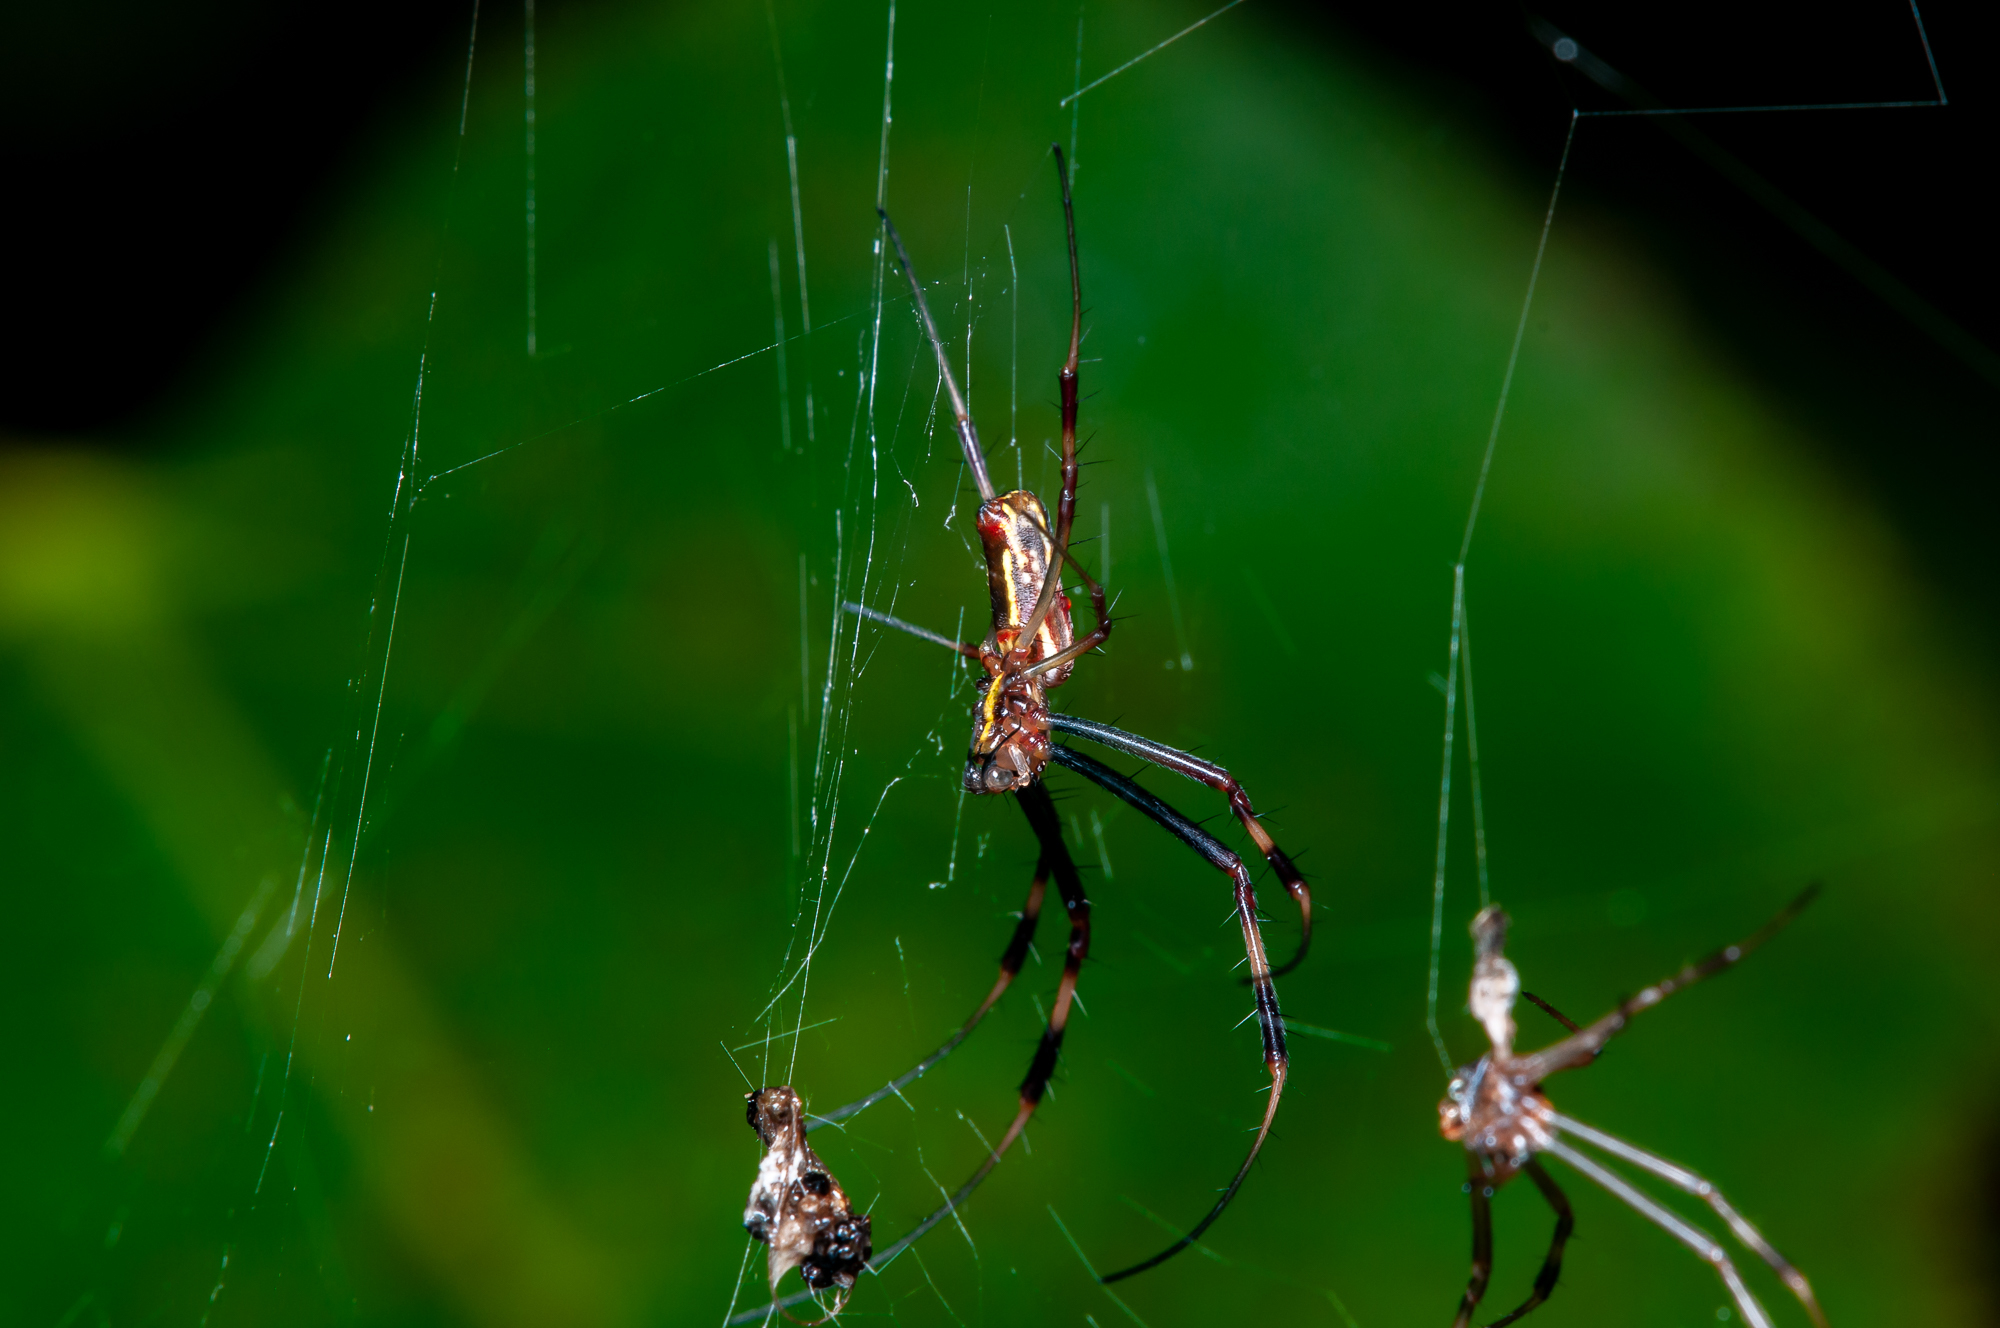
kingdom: Animalia
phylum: Arthropoda
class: Arachnida
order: Araneae
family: Araneidae
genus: Trichonephila
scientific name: Trichonephila clavipes
